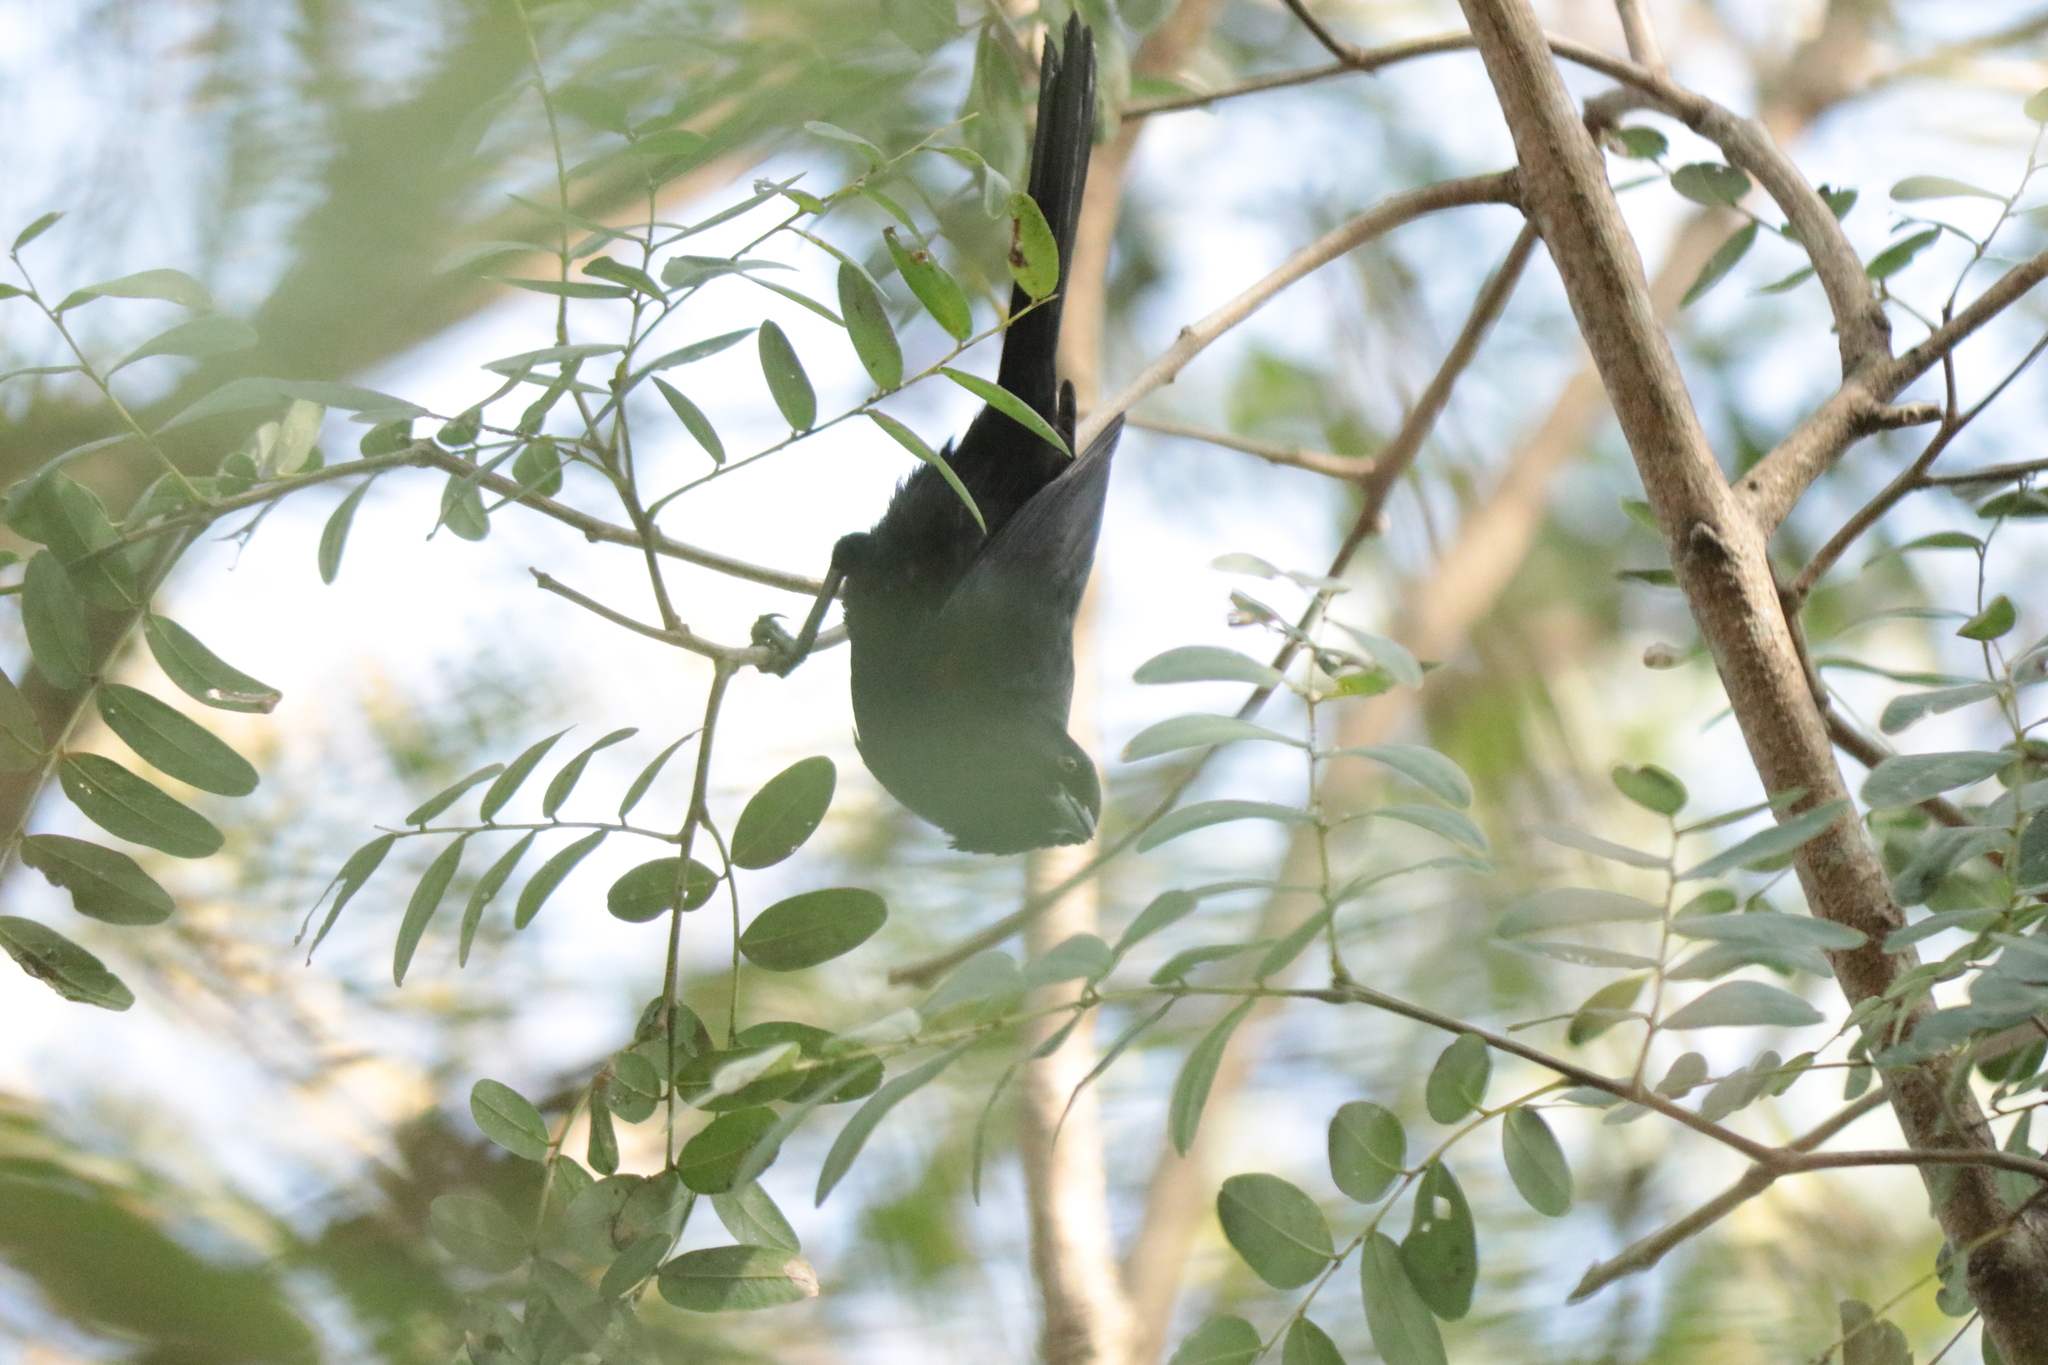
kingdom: Animalia
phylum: Chordata
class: Aves
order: Passeriformes
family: Icteridae
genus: Icterus
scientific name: Icterus cayanensis
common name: Epaulet oriole
